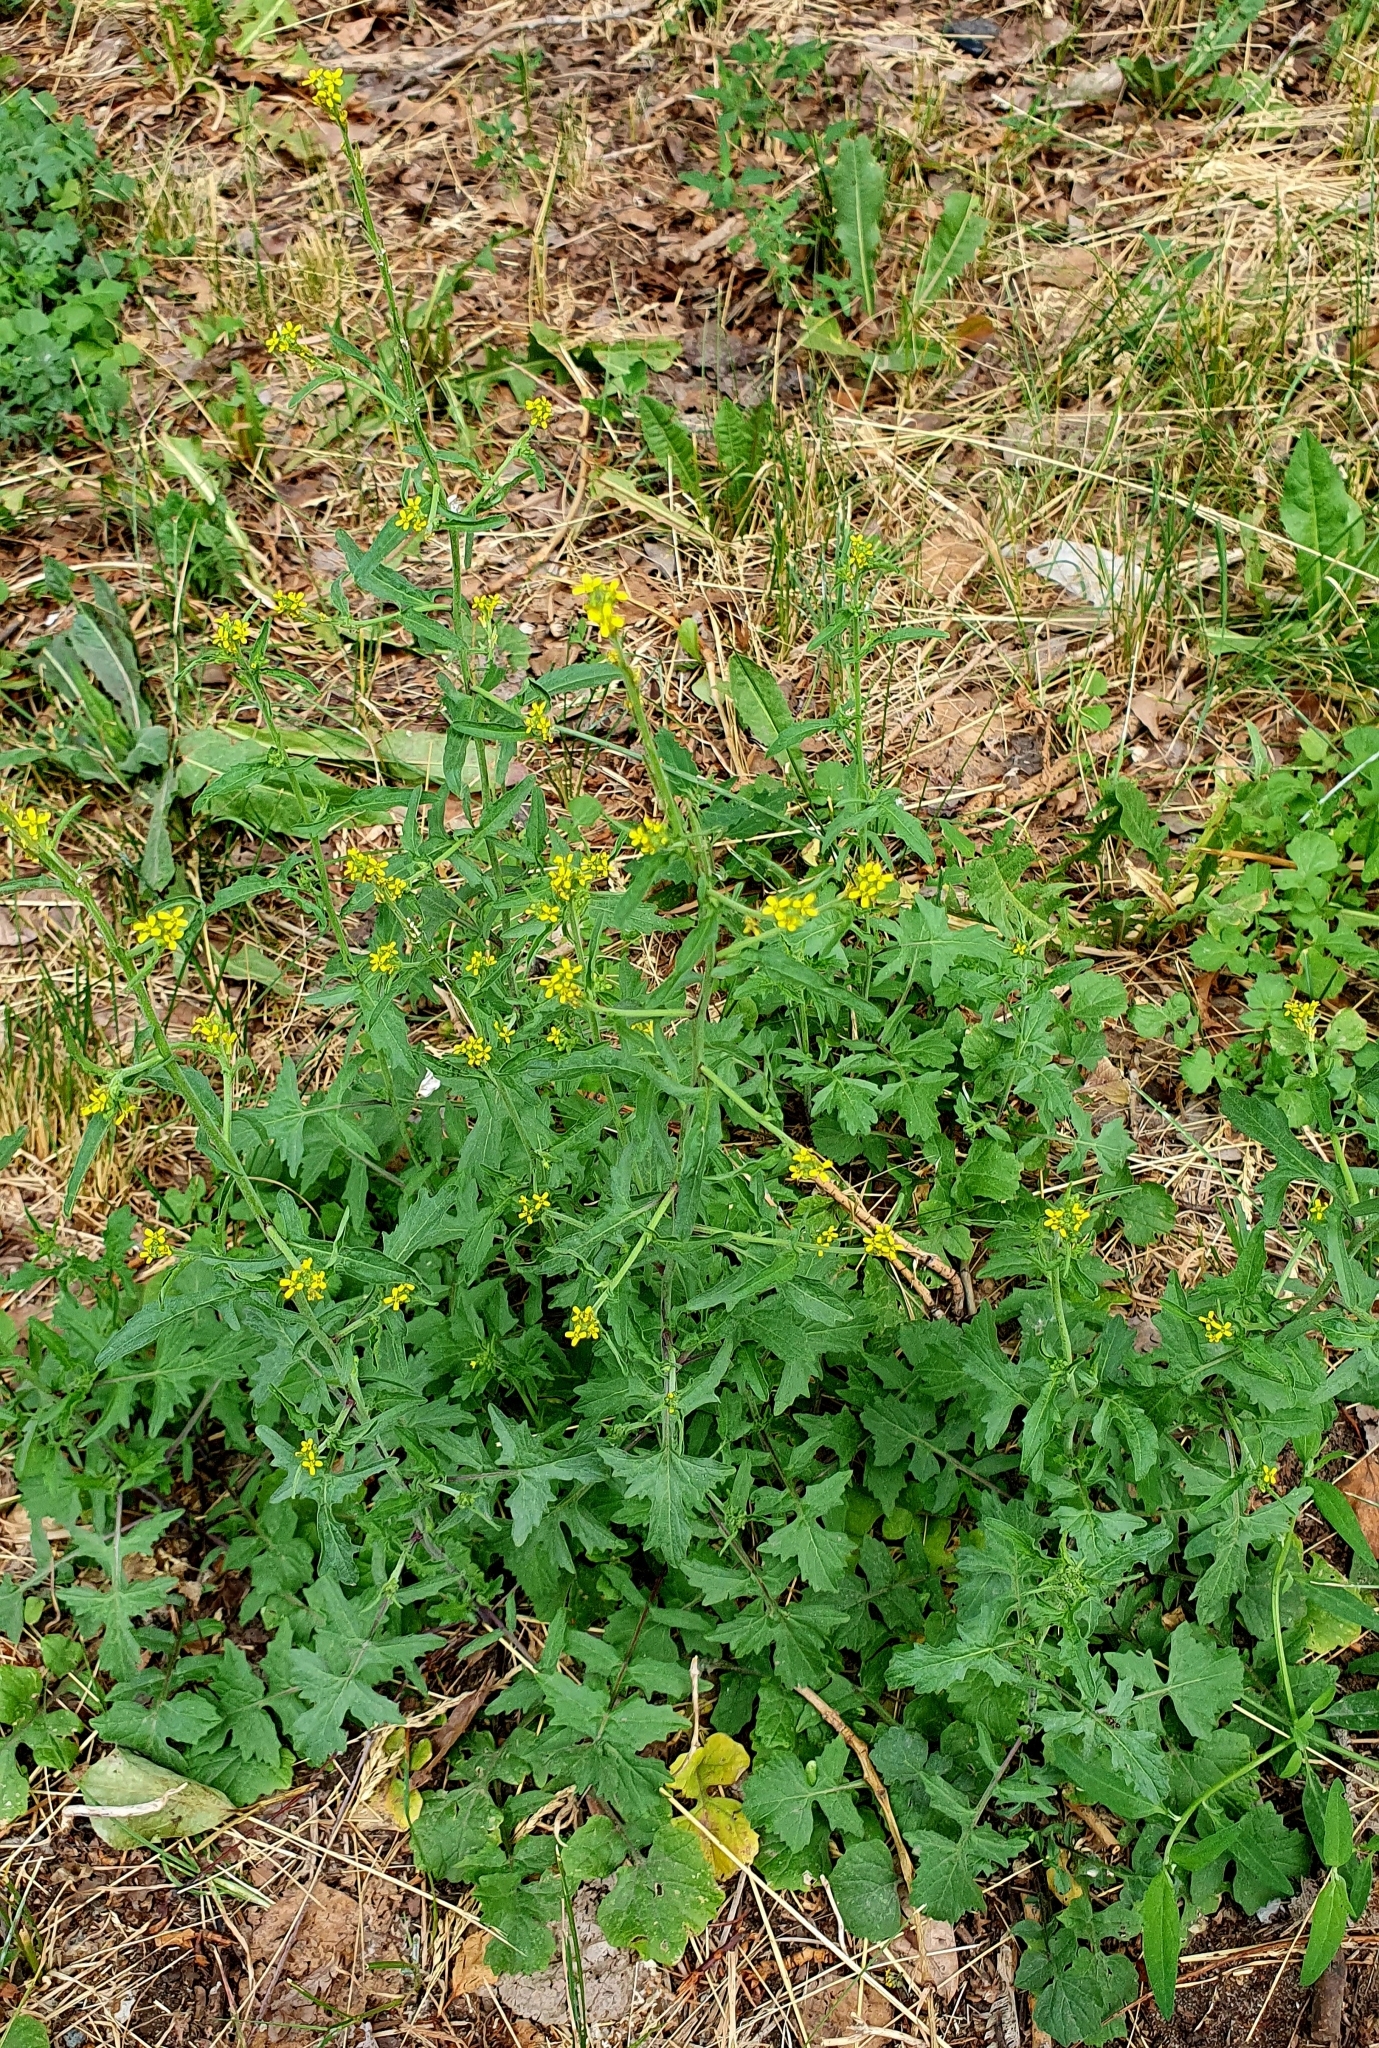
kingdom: Plantae
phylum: Tracheophyta
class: Magnoliopsida
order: Brassicales
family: Brassicaceae
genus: Sisymbrium
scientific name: Sisymbrium officinale
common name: Hedge mustard
